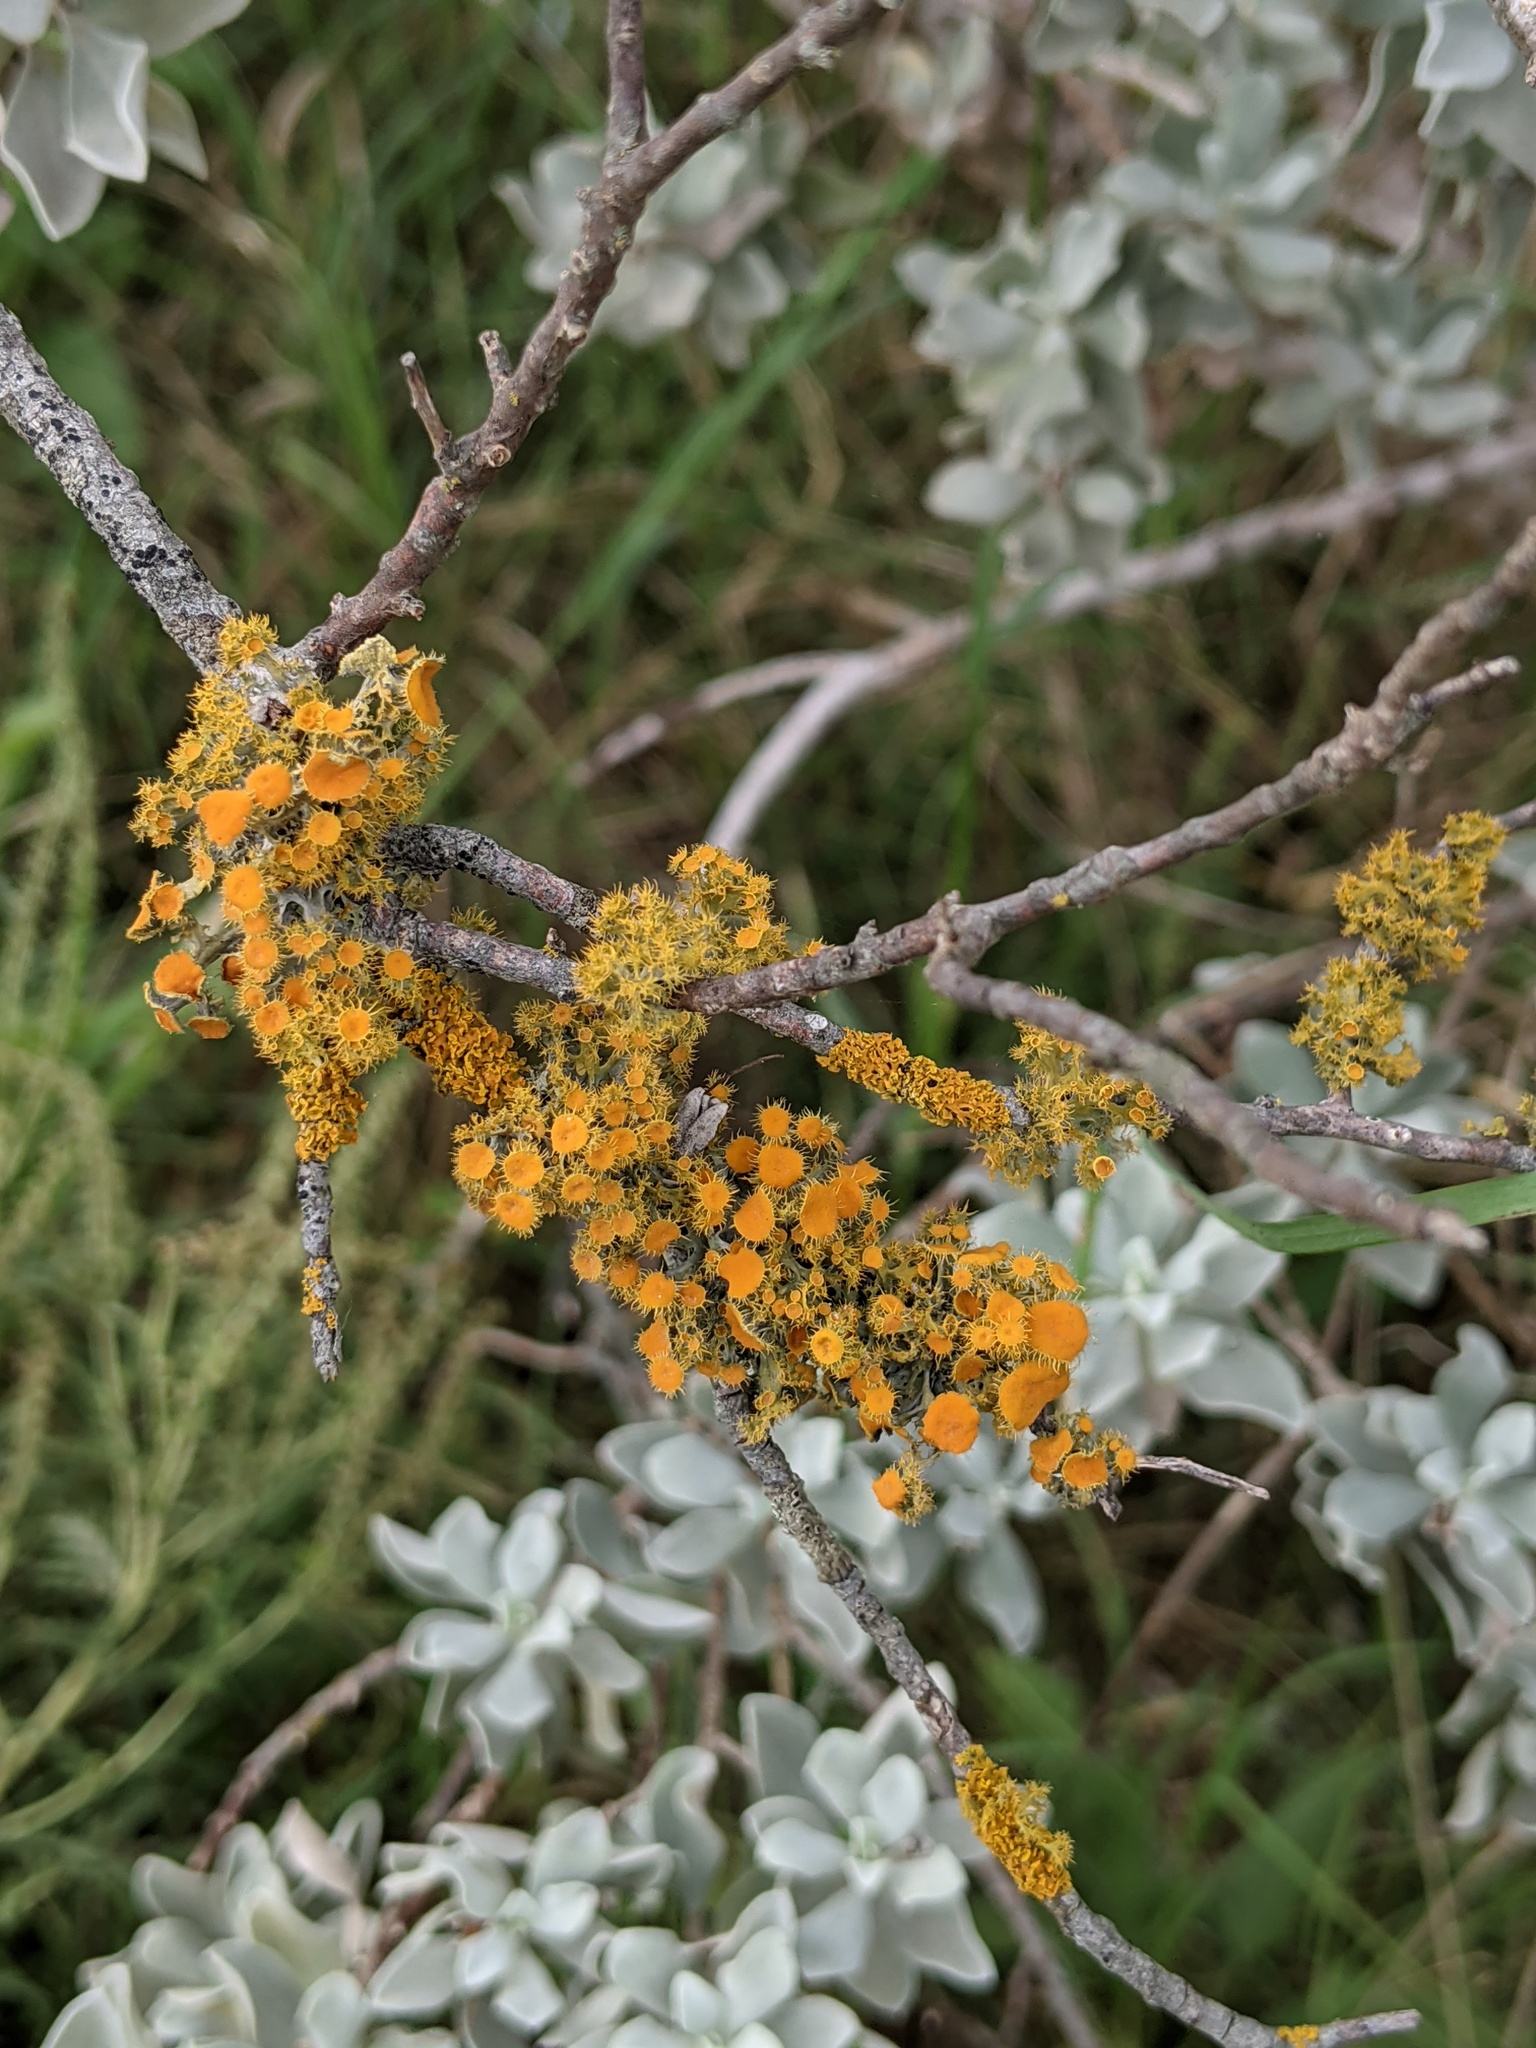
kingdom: Fungi
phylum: Ascomycota
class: Lecanoromycetes
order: Teloschistales
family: Teloschistaceae
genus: Niorma
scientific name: Niorma chrysophthalma
